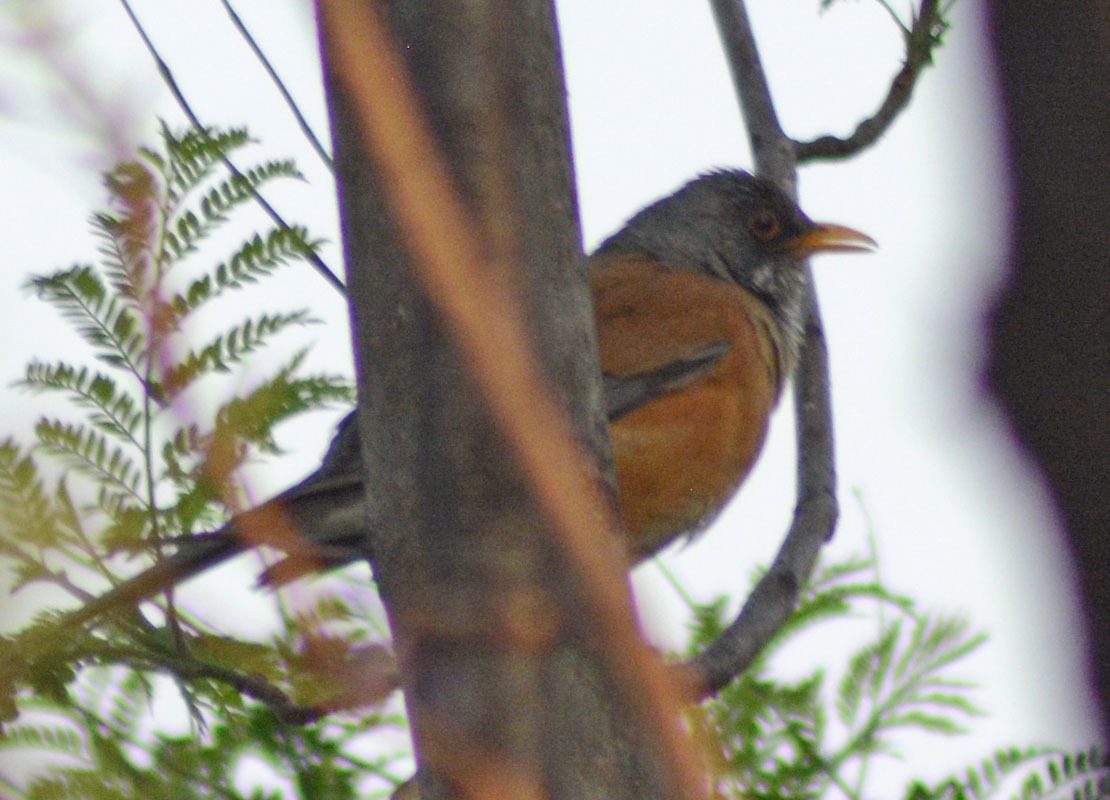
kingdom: Animalia
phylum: Chordata
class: Aves
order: Passeriformes
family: Turdidae
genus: Turdus
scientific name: Turdus rufopalliatus
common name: Rufous-backed robin
